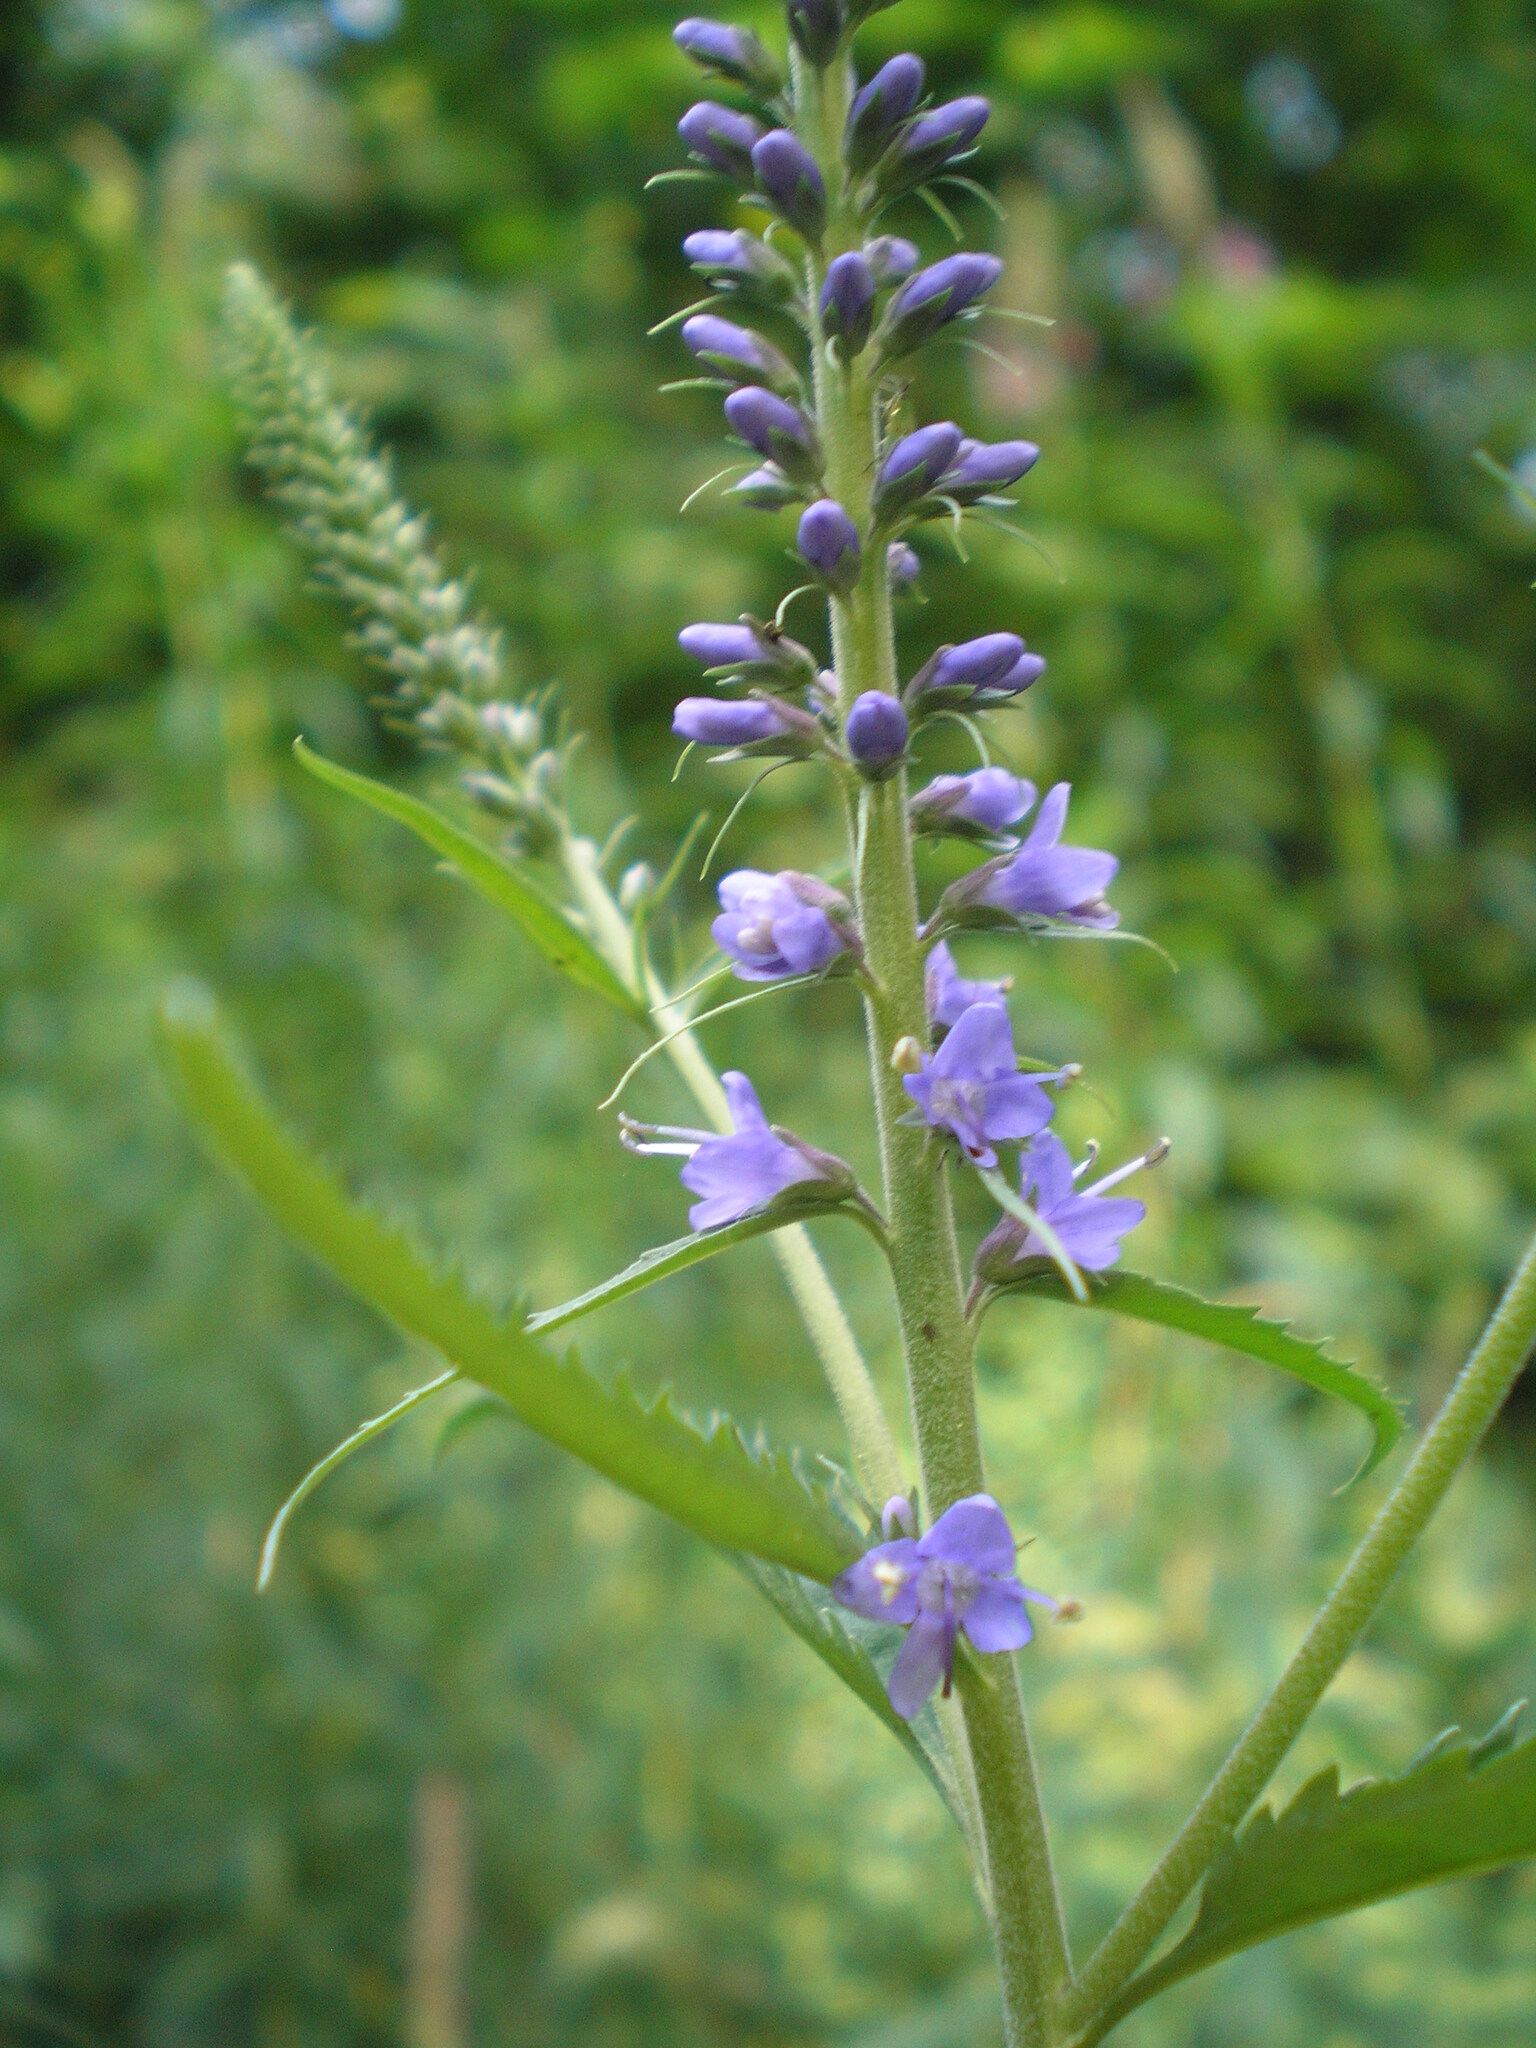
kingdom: Plantae
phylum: Tracheophyta
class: Magnoliopsida
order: Lamiales
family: Plantaginaceae
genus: Veronica
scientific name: Veronica longifolia
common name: Garden speedwell
